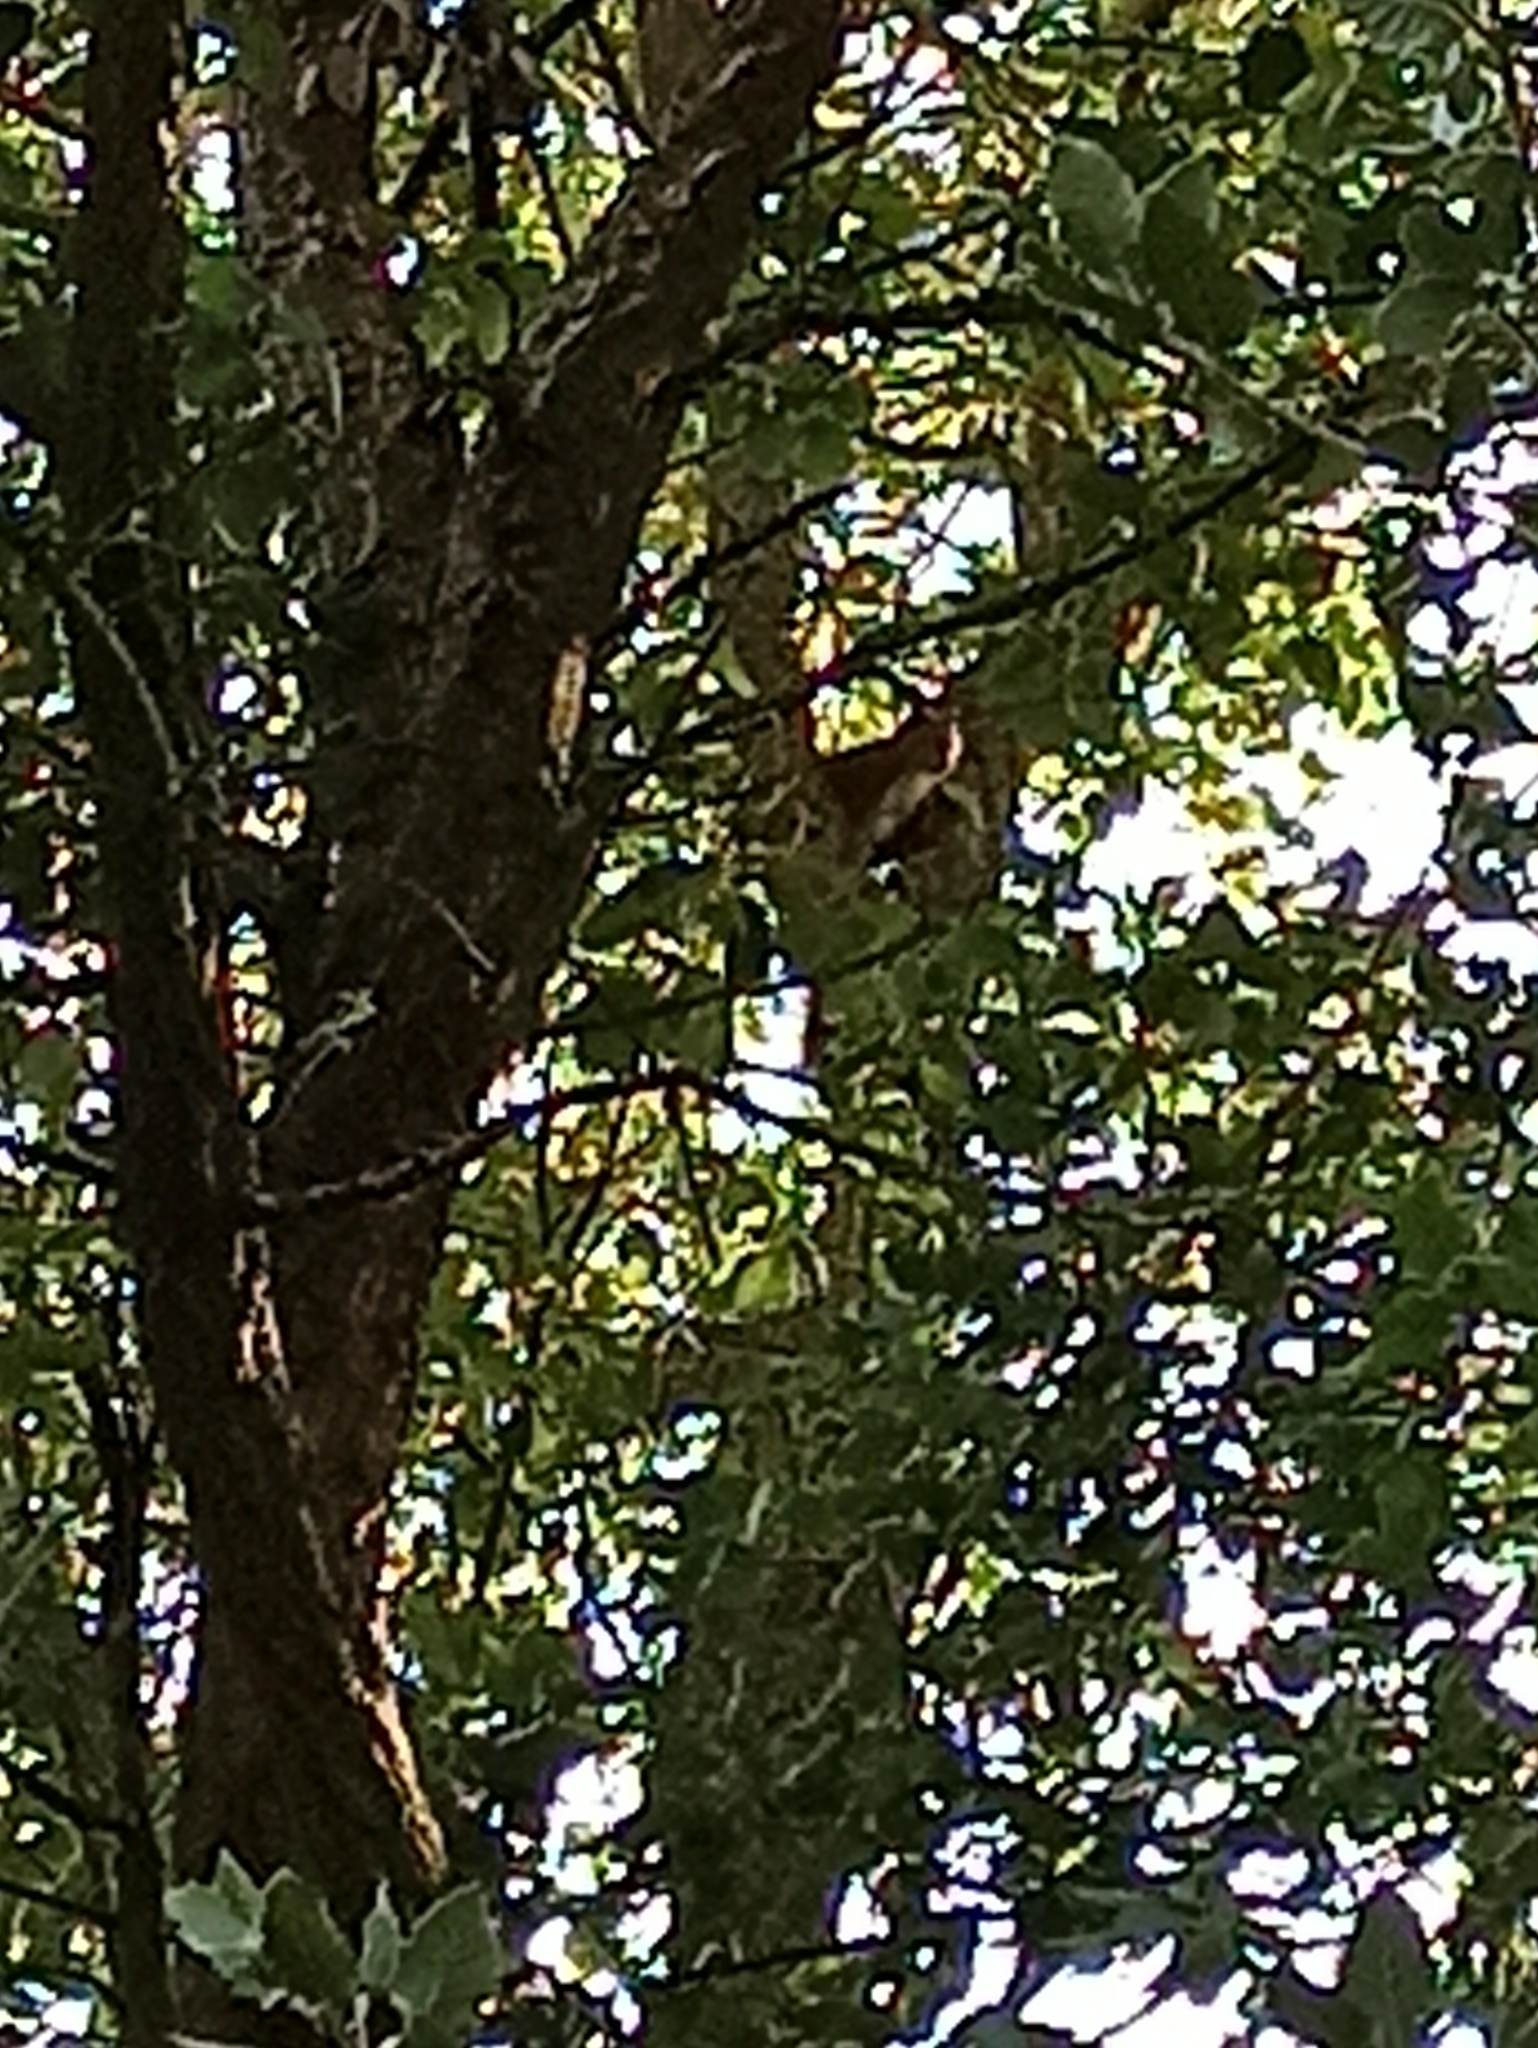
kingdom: Animalia
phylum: Chordata
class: Mammalia
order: Rodentia
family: Sciuridae
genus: Sciurus
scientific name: Sciurus vulgaris
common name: Eurasian red squirrel
